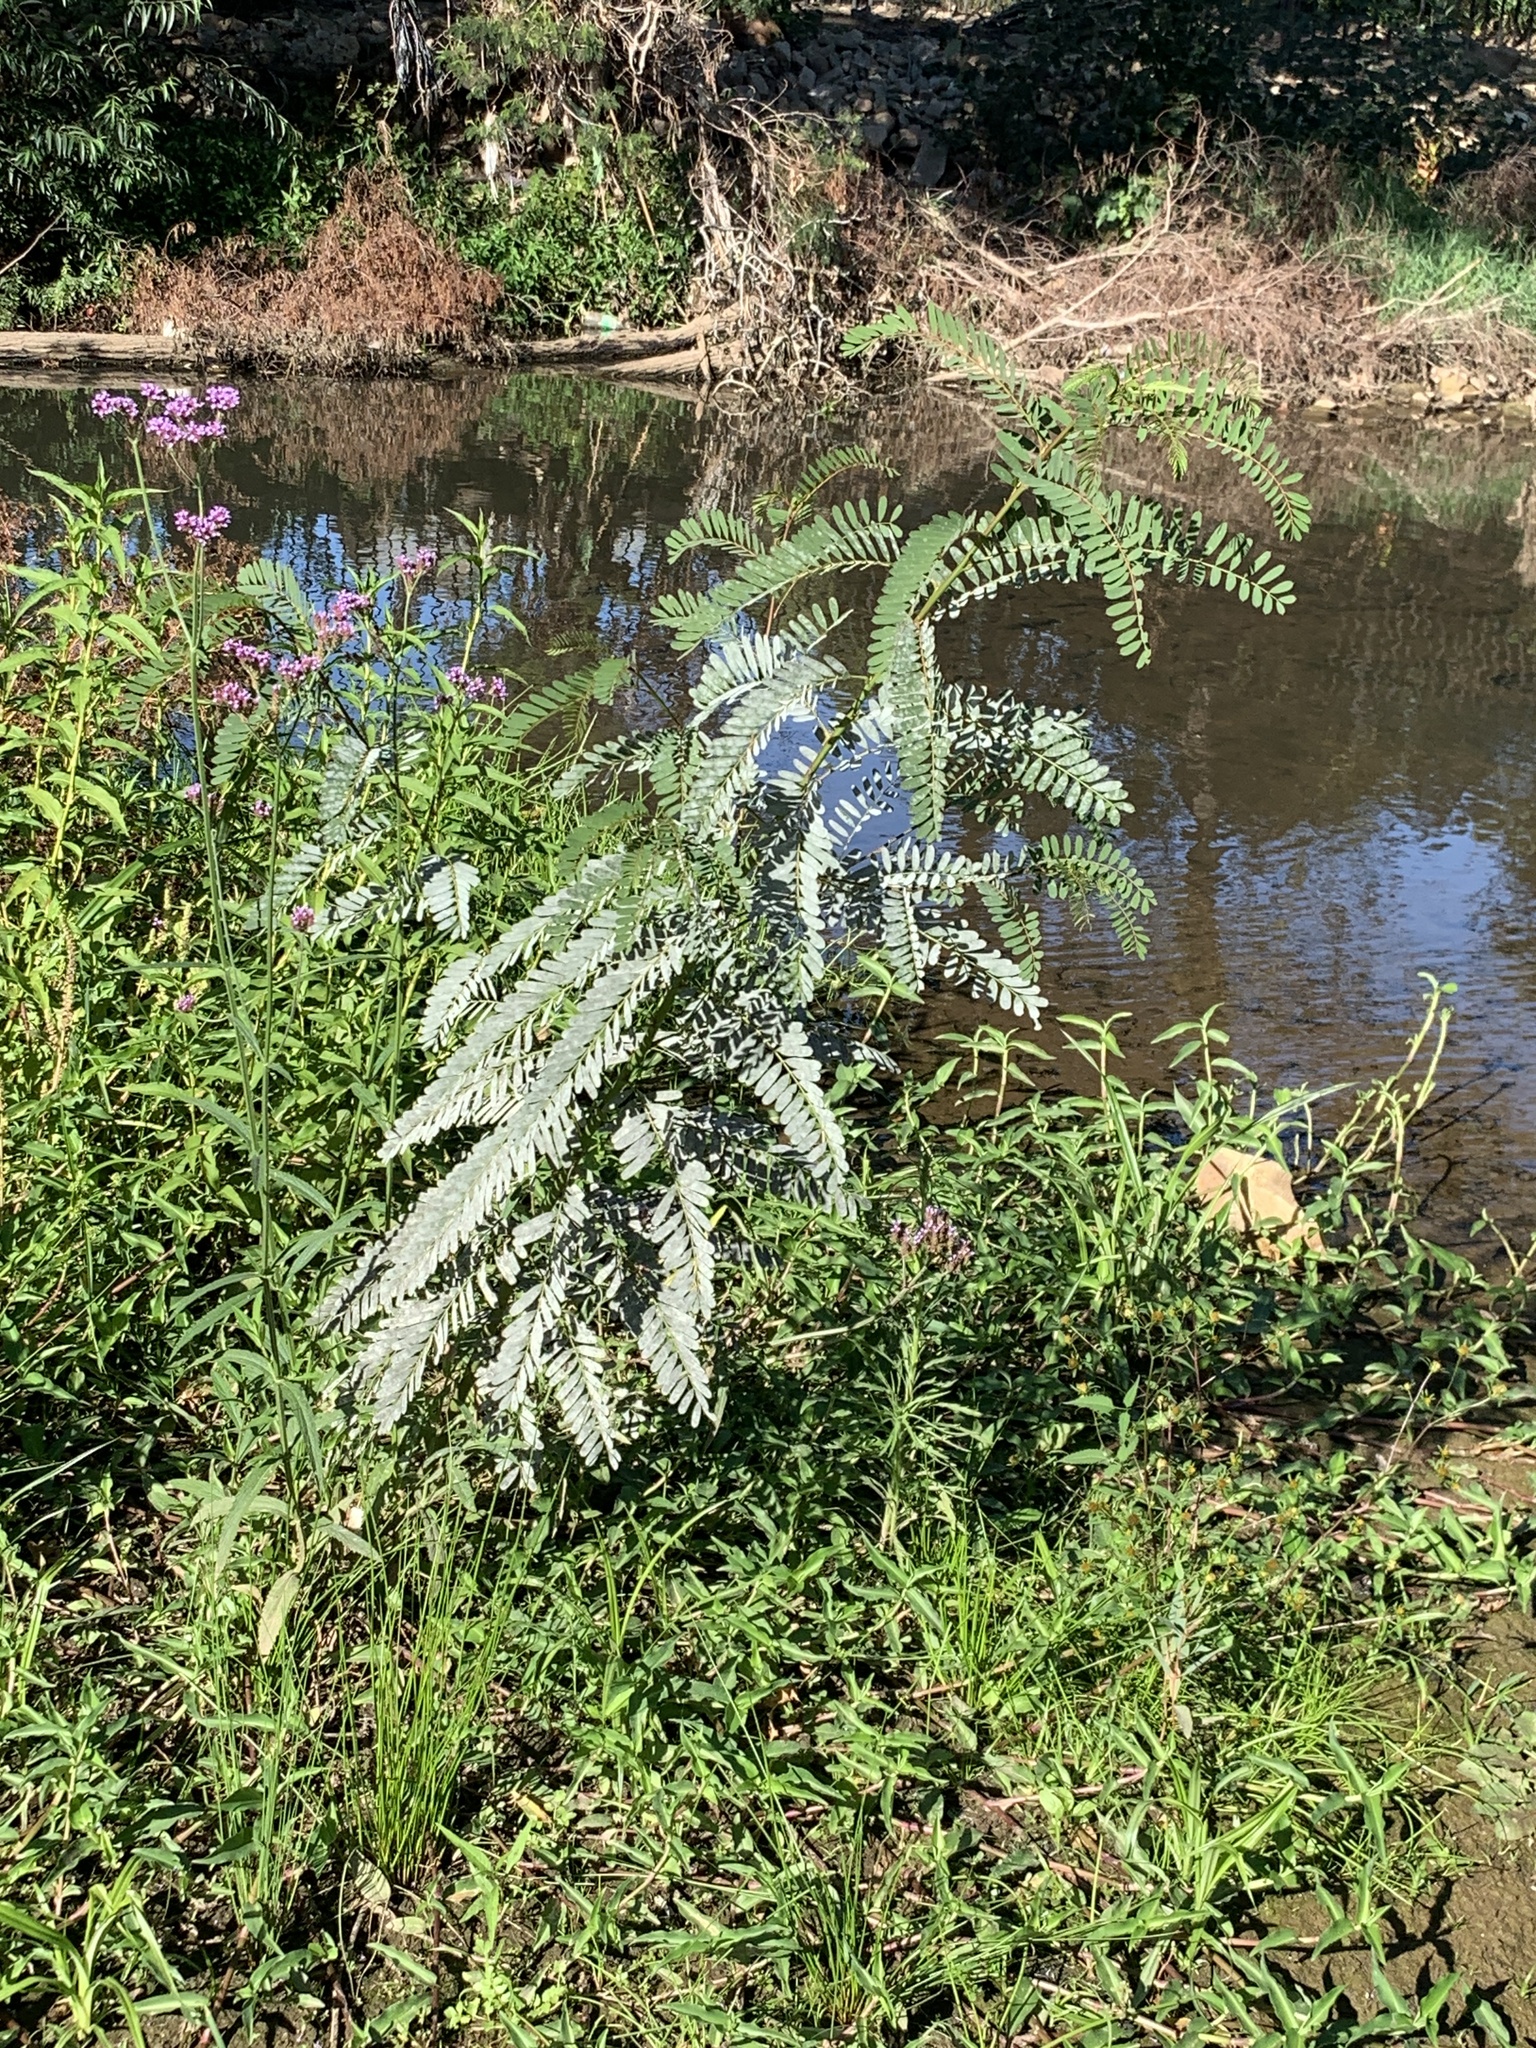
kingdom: Plantae
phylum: Tracheophyta
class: Magnoliopsida
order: Fabales
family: Fabaceae
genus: Sesbania
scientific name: Sesbania punicea
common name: Rattlebox
